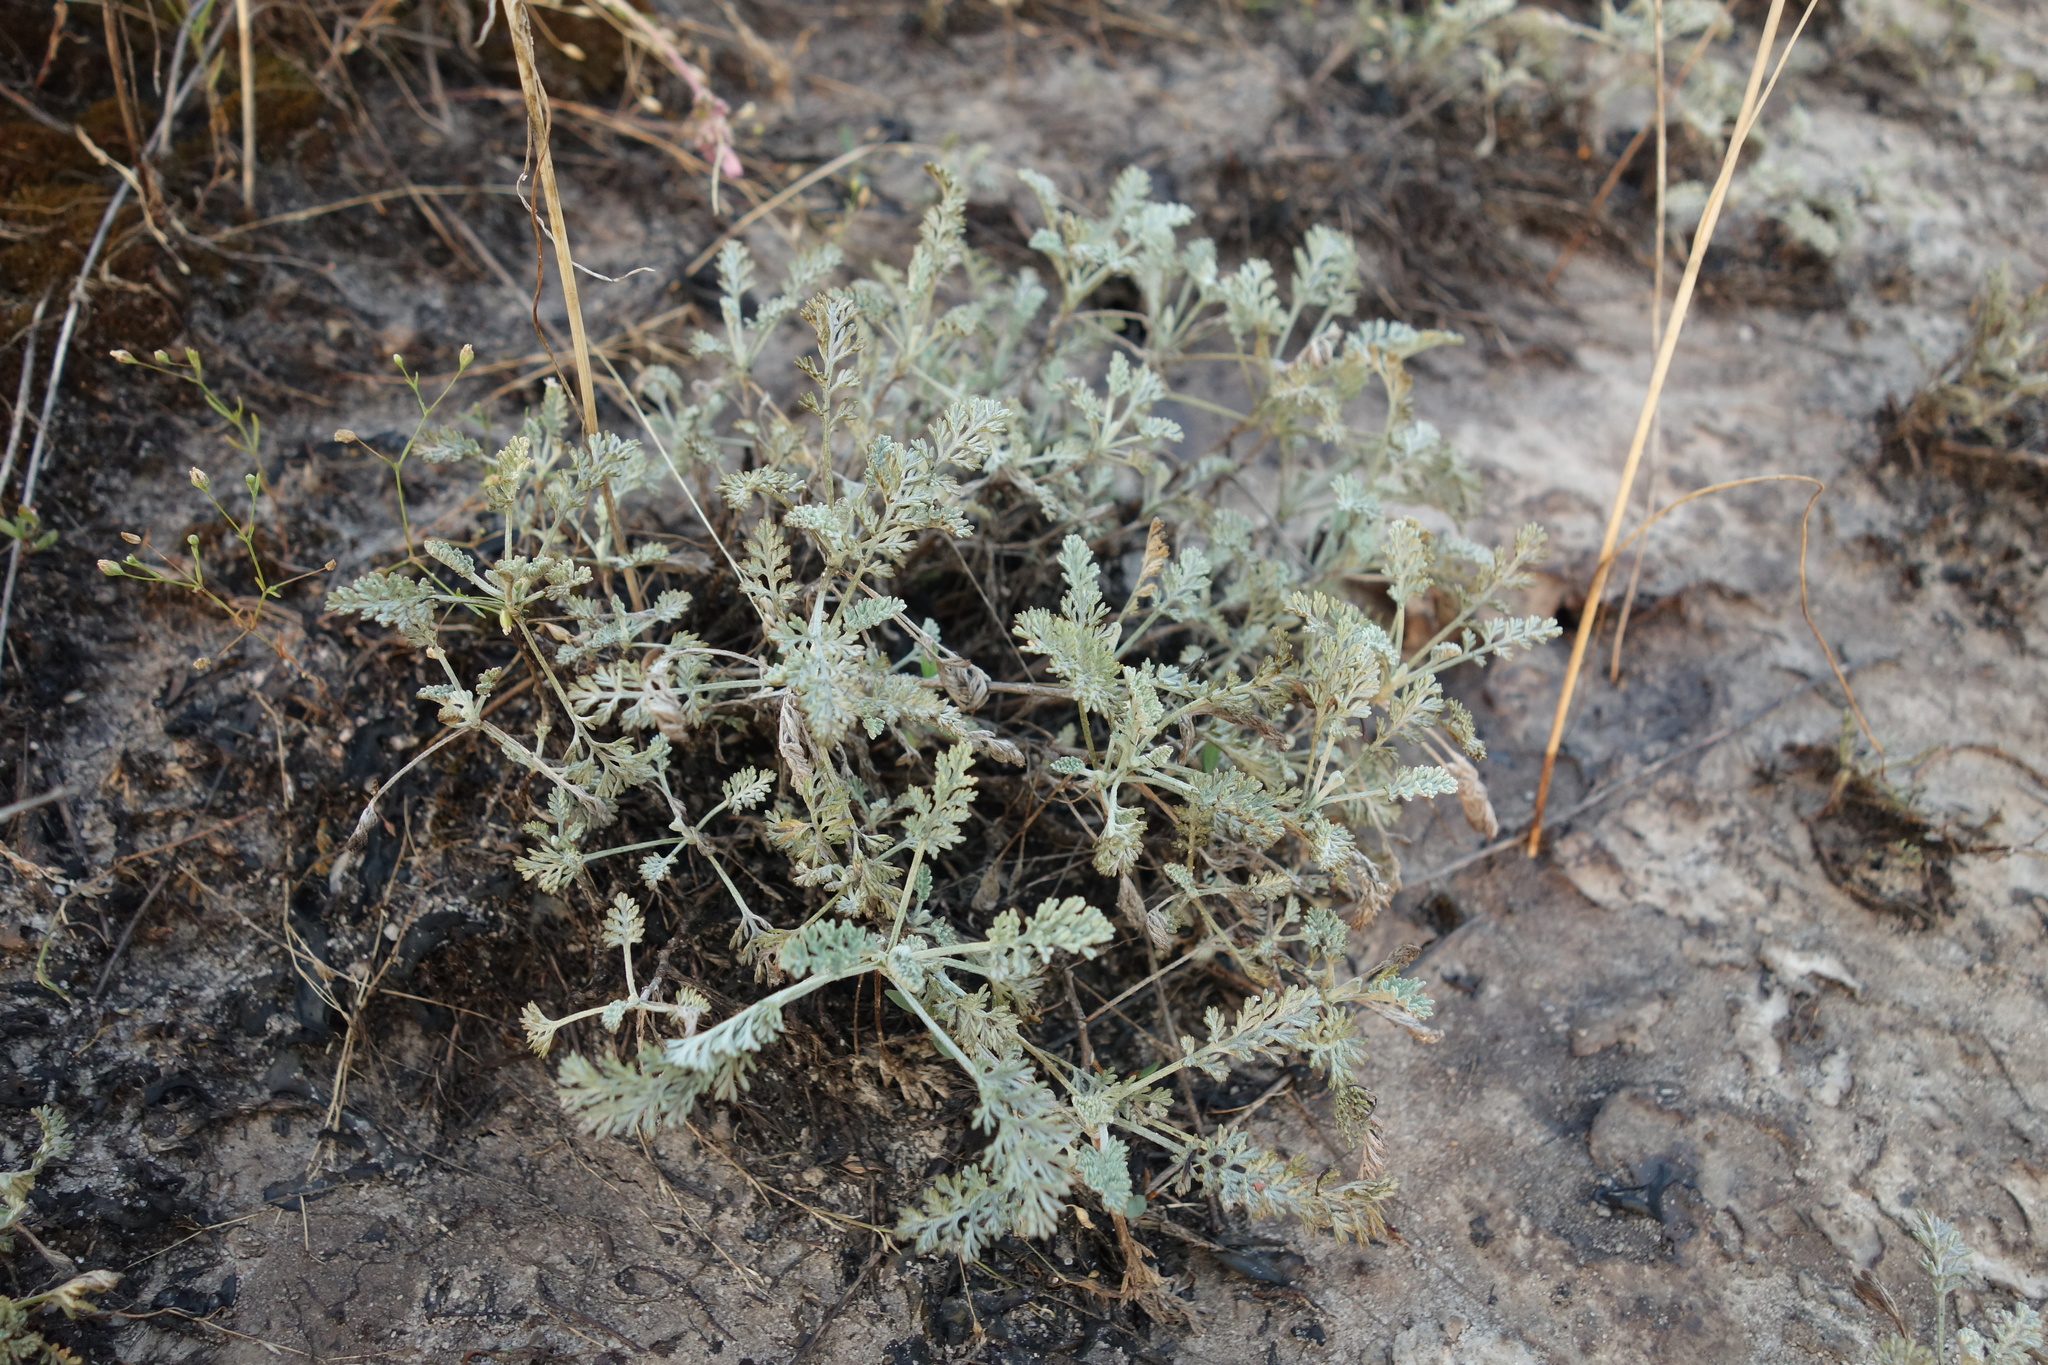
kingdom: Plantae
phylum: Tracheophyta
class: Magnoliopsida
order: Asterales
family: Asteraceae
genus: Artemisia
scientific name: Artemisia santonicum
